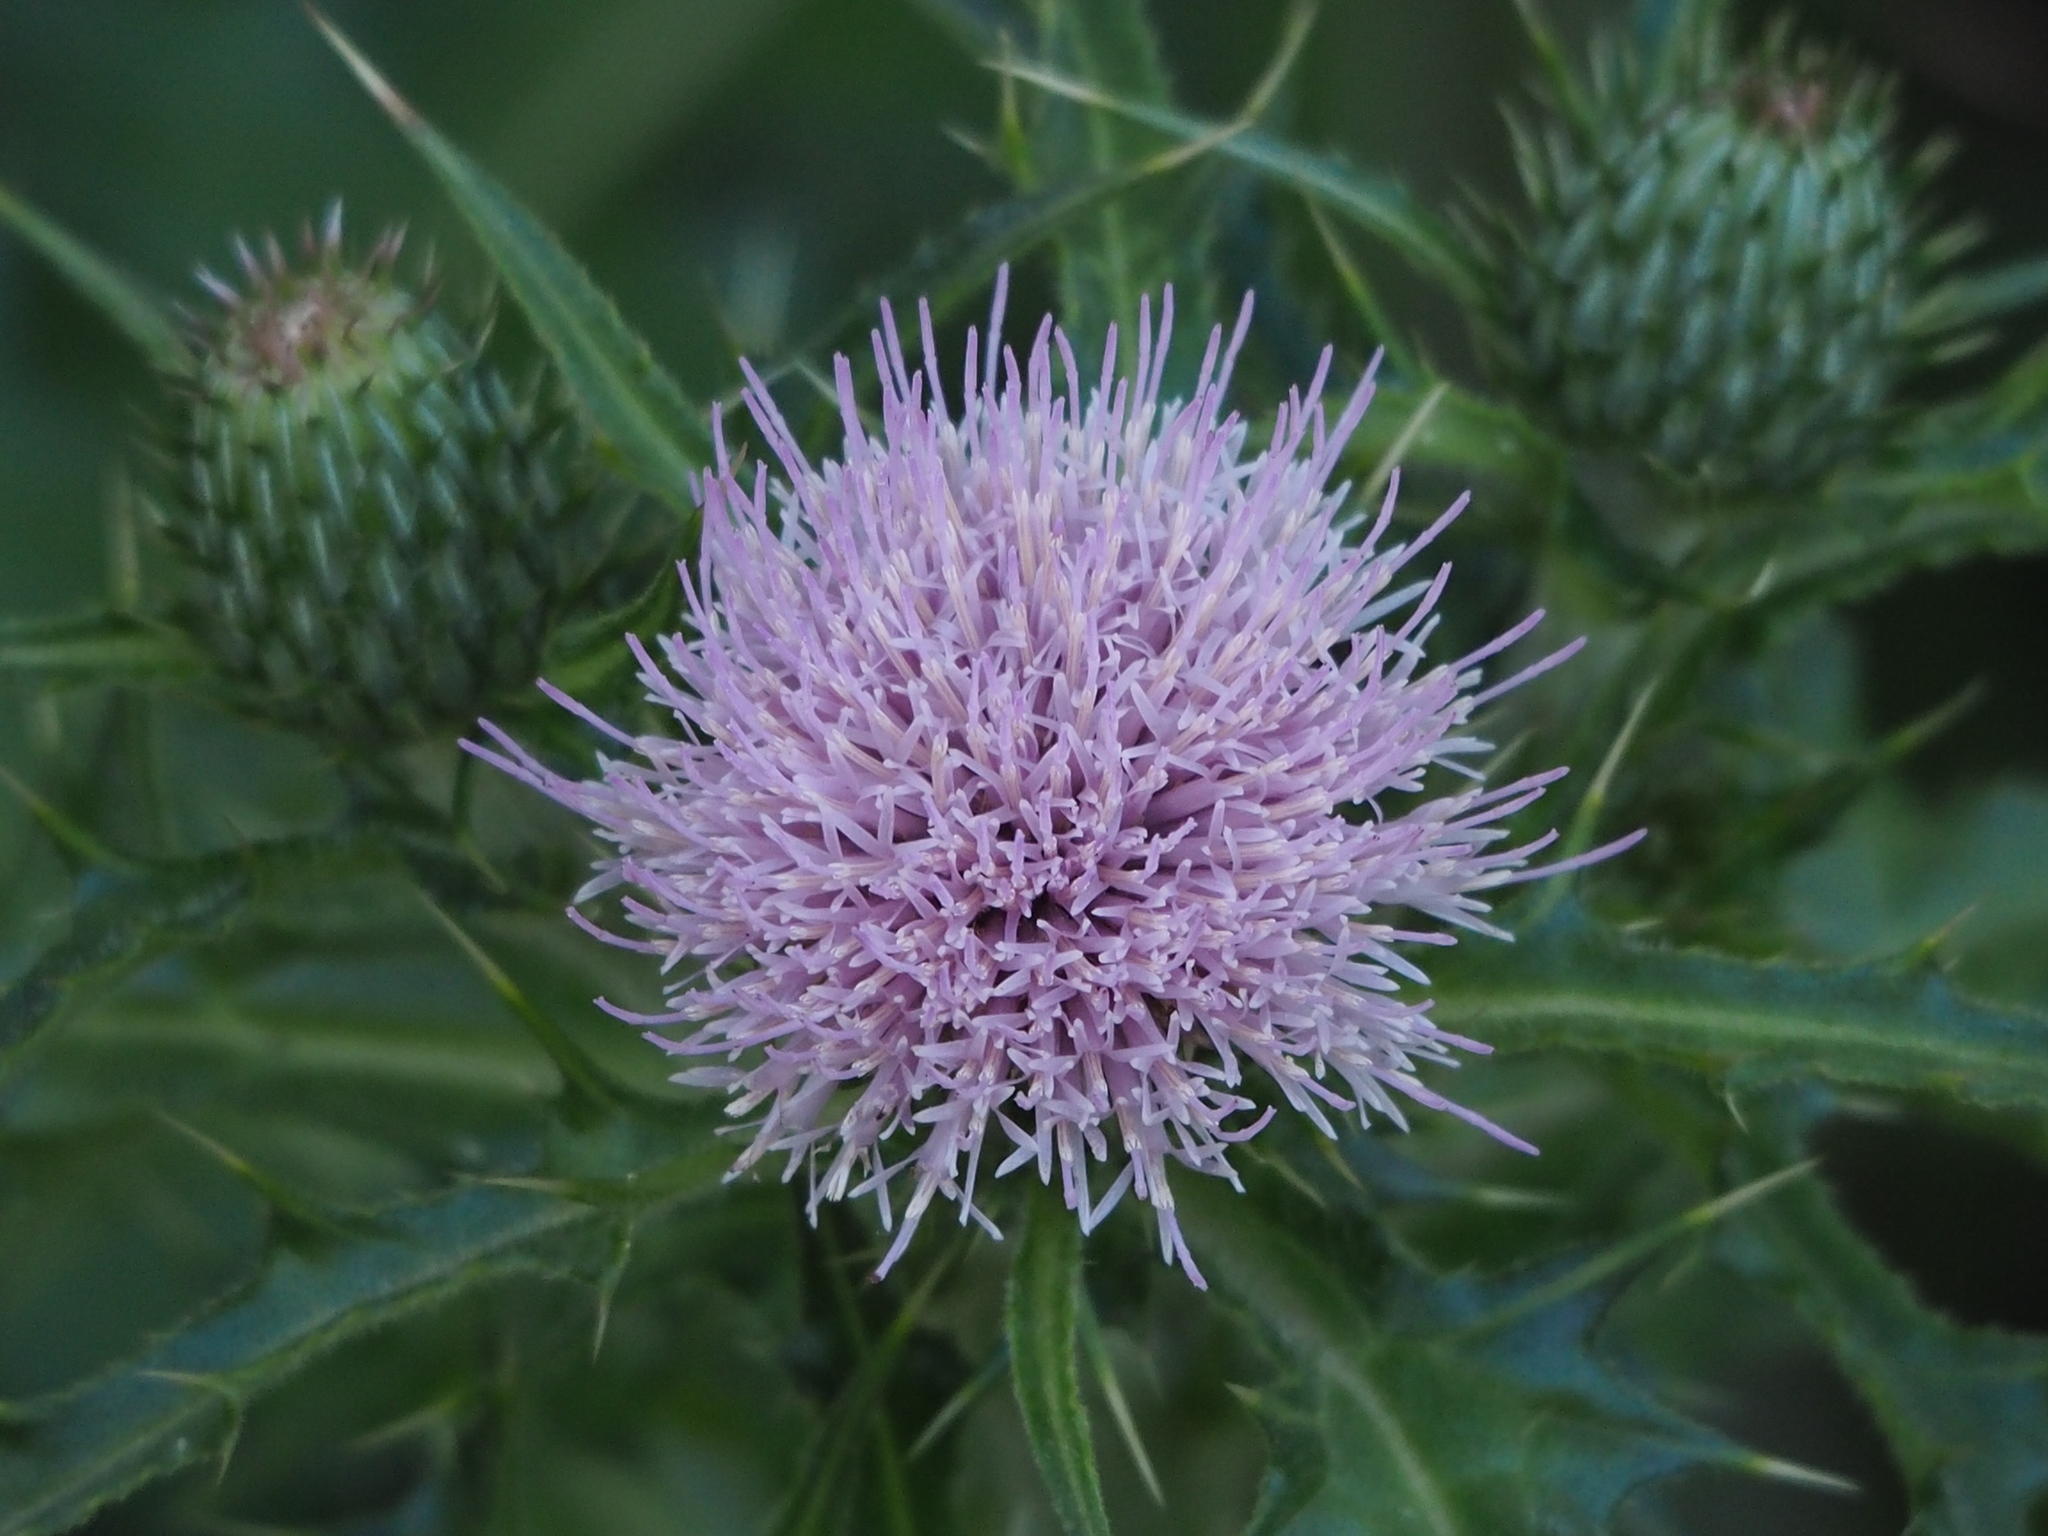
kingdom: Plantae
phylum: Tracheophyta
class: Magnoliopsida
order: Asterales
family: Asteraceae
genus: Cirsium
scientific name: Cirsium japonicum
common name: Japanese thistle
